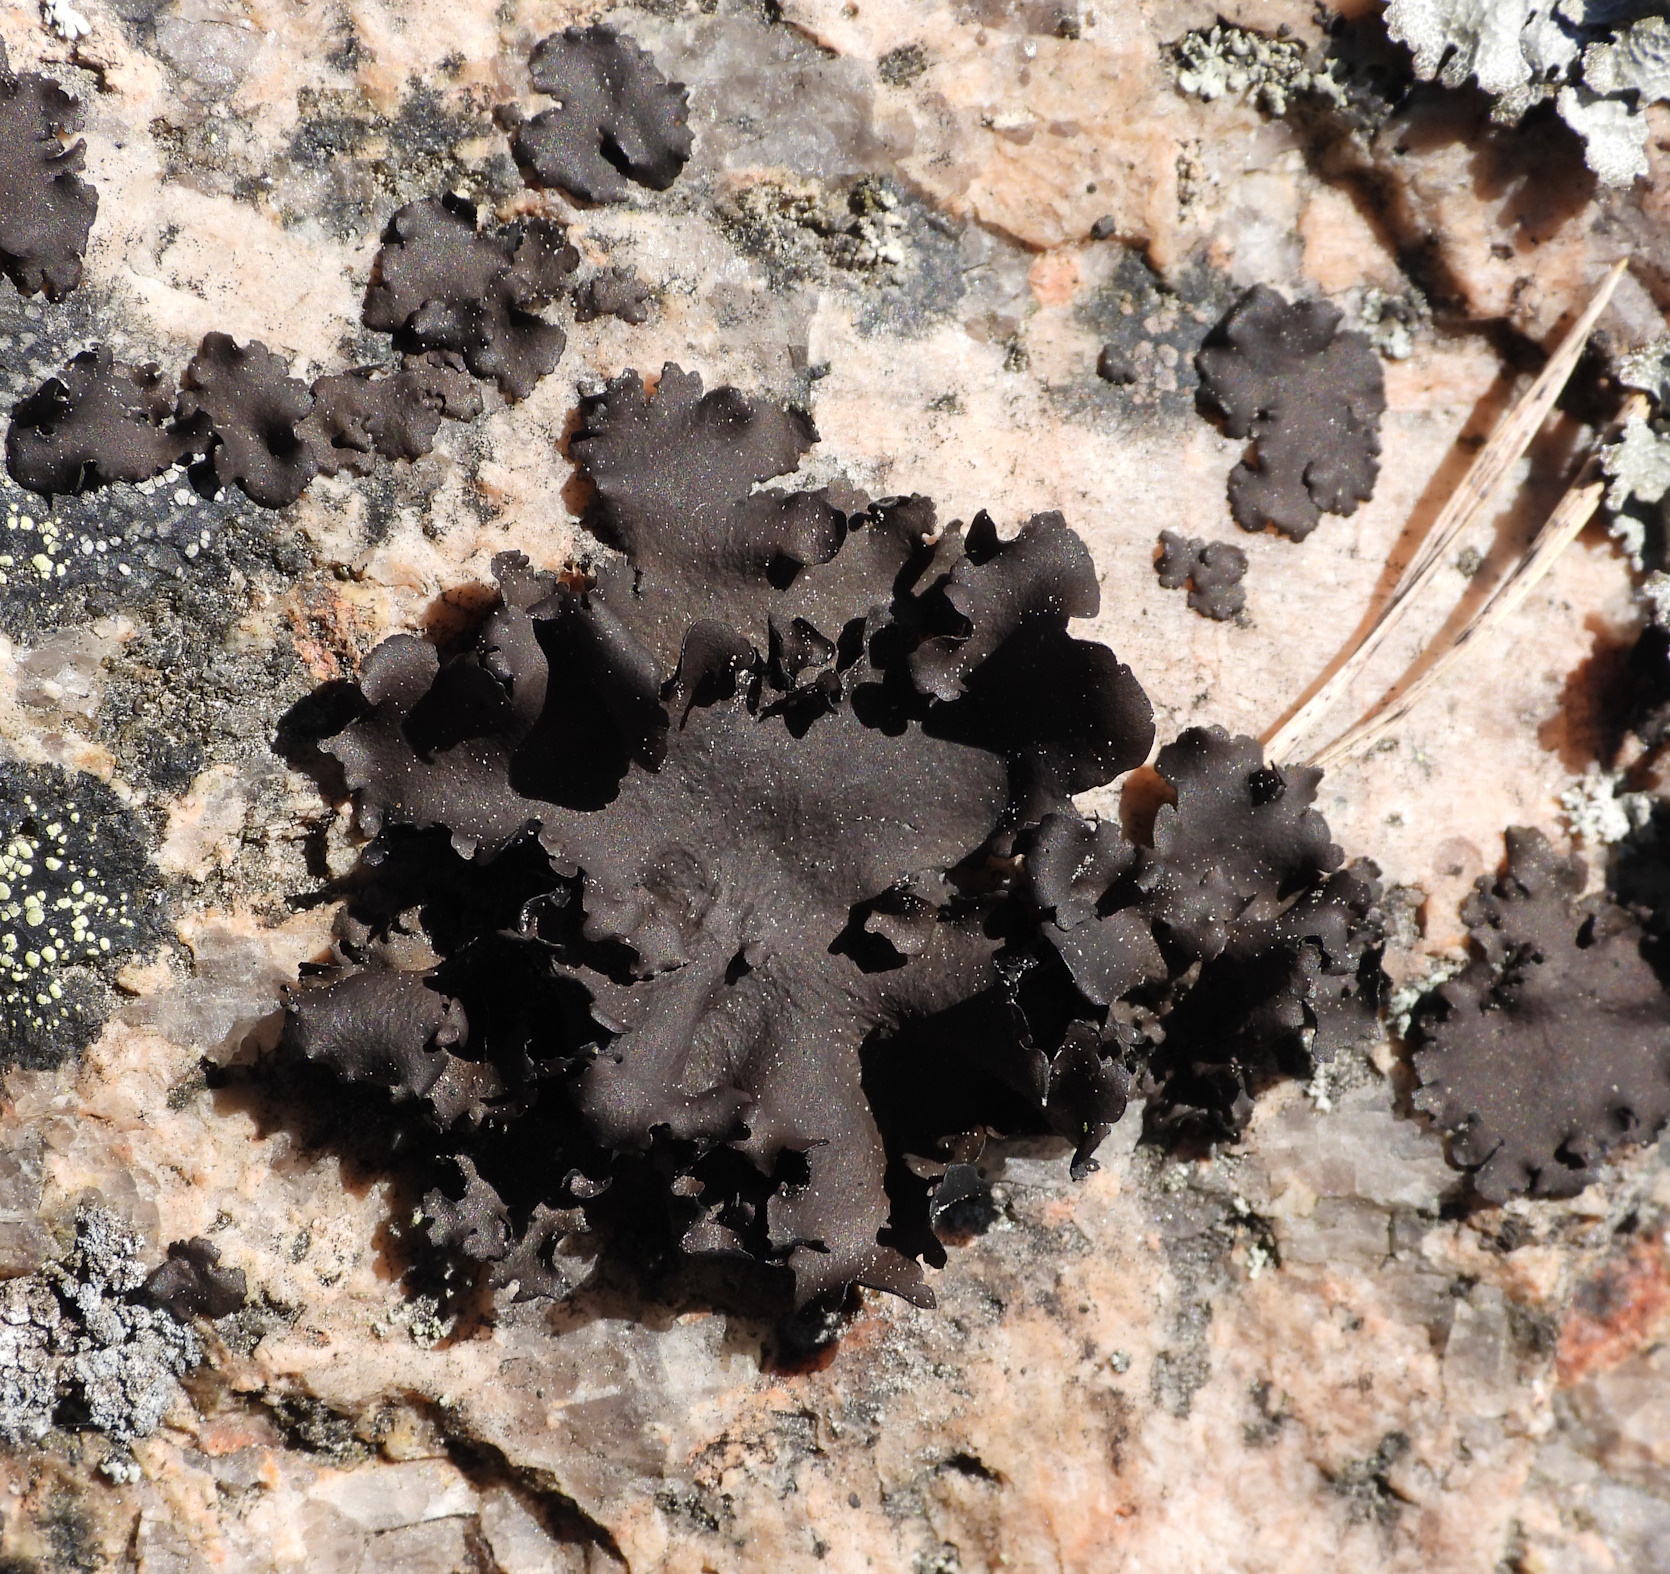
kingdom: Fungi
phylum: Ascomycota
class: Lecanoromycetes
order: Umbilicariales
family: Umbilicariaceae
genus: Umbilicaria
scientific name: Umbilicaria polyphylla
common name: Petalled rocktripe lichen
